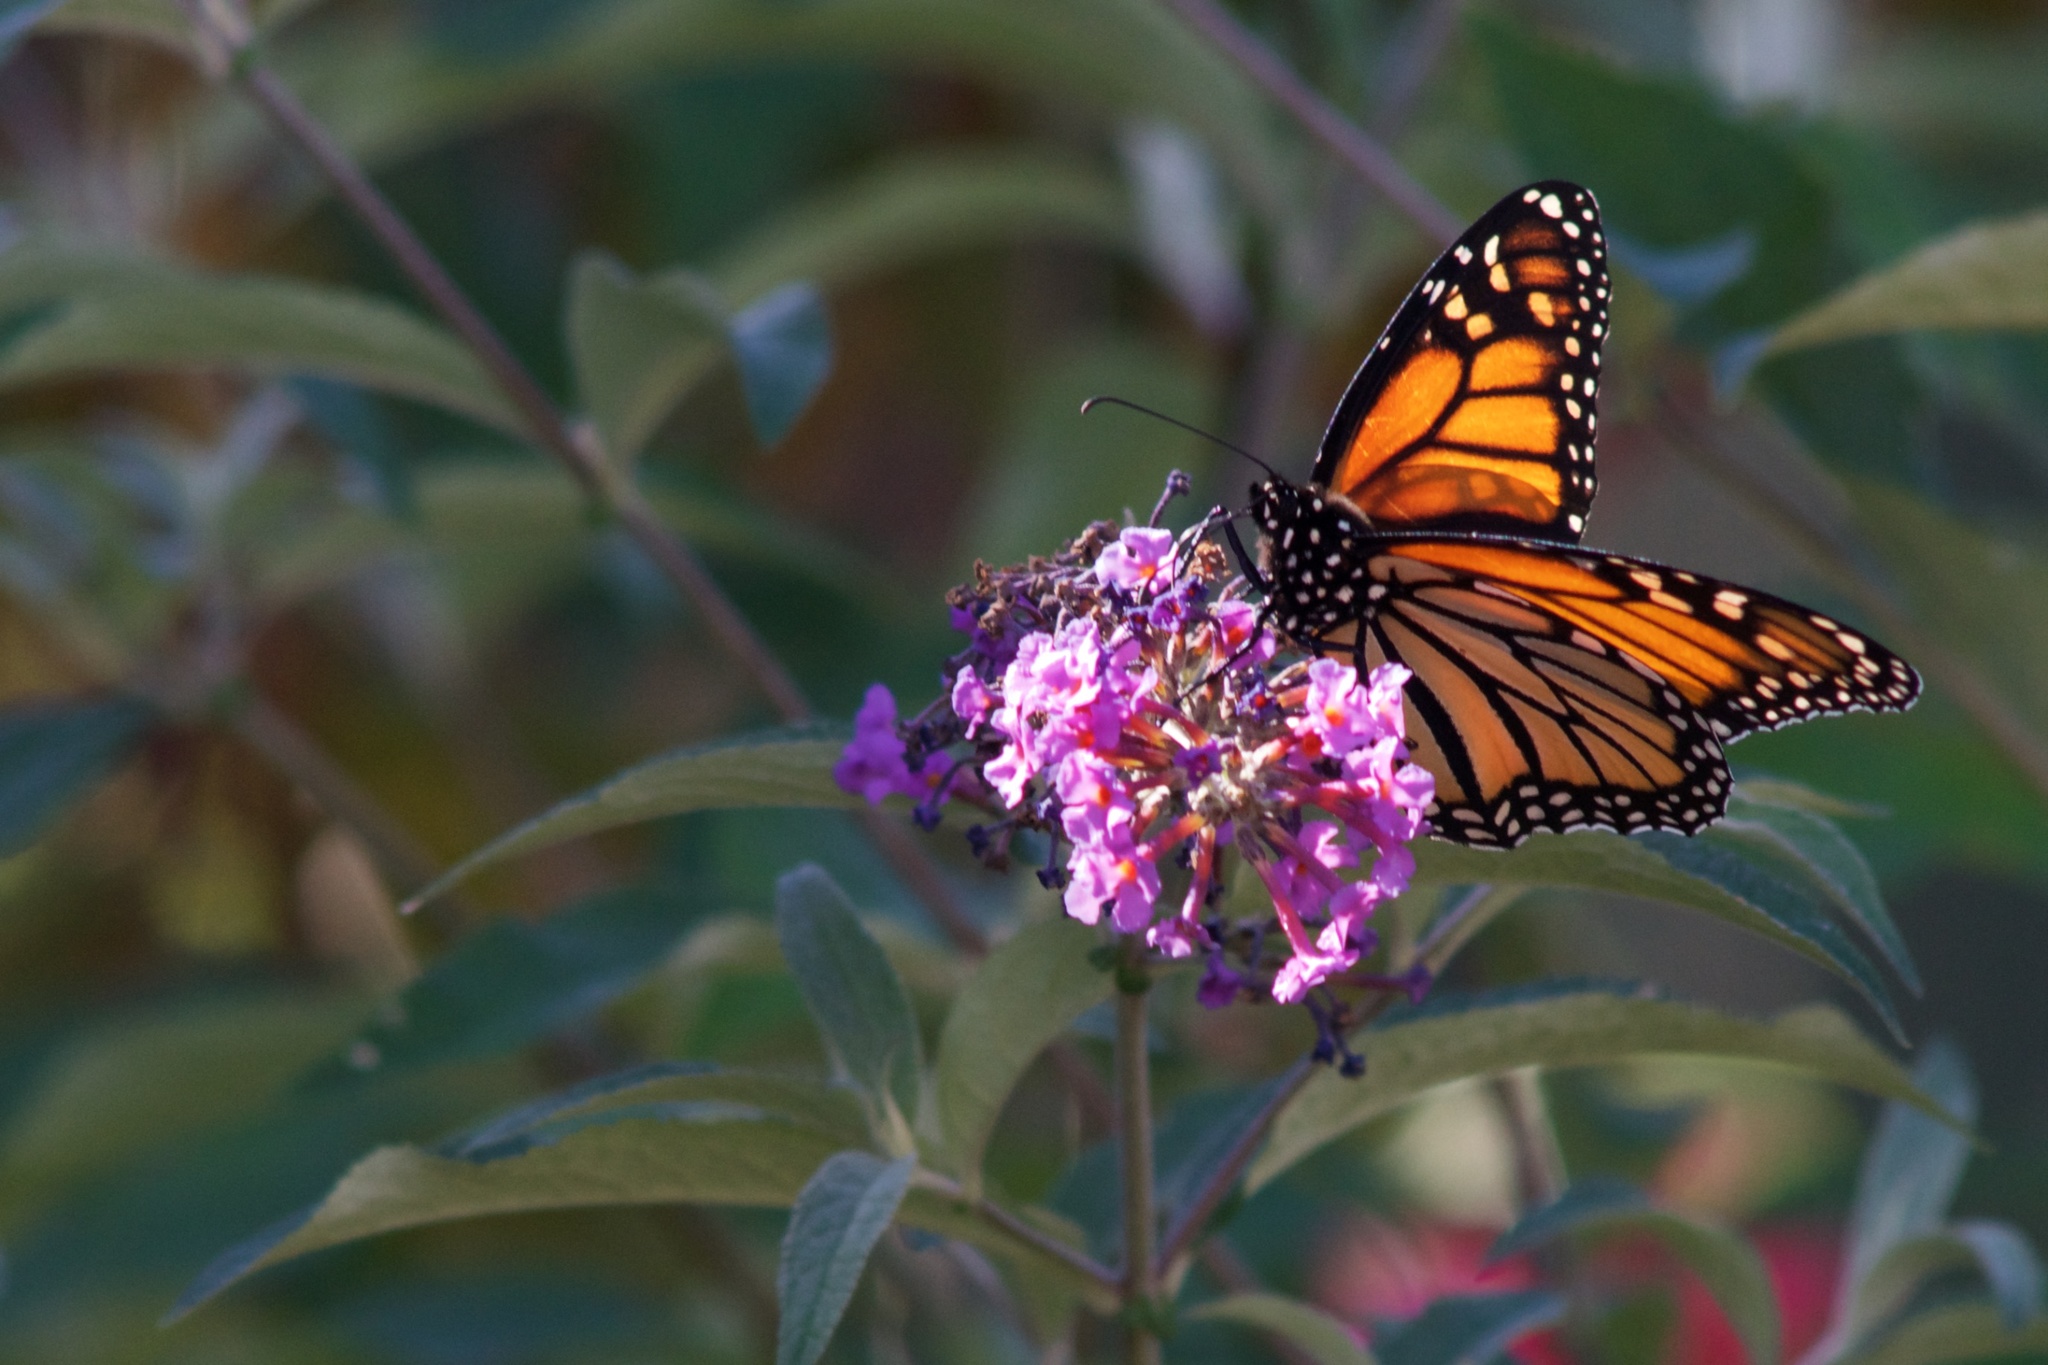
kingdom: Animalia
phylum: Arthropoda
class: Insecta
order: Lepidoptera
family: Nymphalidae
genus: Danaus
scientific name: Danaus plexippus
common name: Monarch
